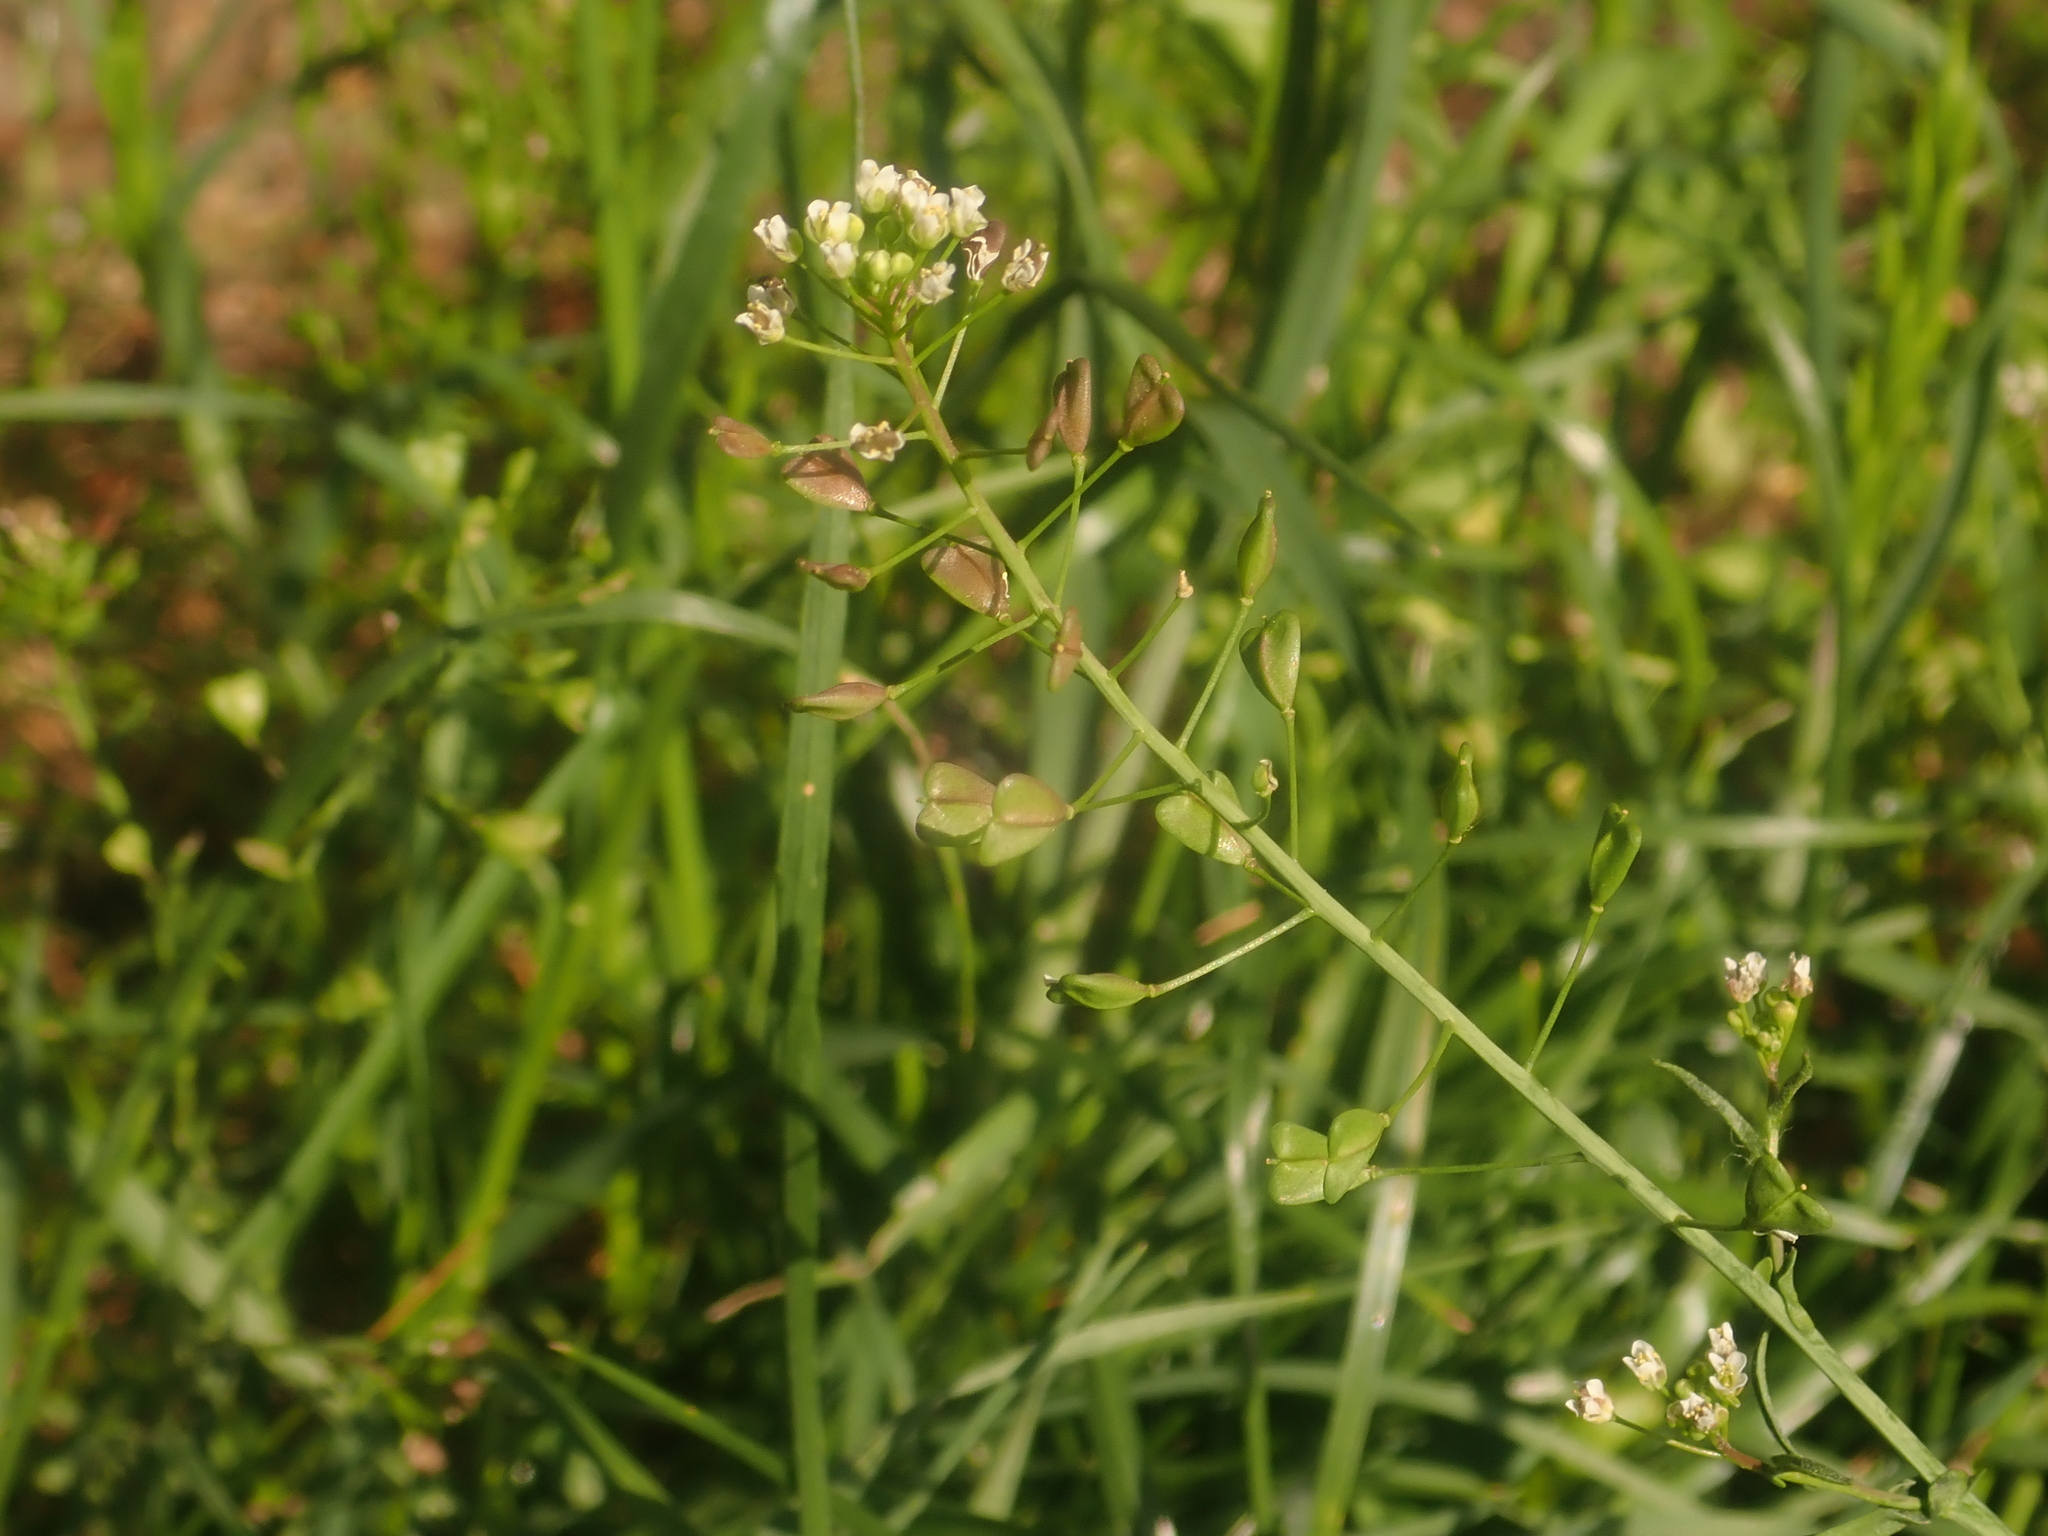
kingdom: Plantae
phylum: Tracheophyta
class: Magnoliopsida
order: Brassicales
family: Brassicaceae
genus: Capsella
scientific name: Capsella bursa-pastoris
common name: Shepherd's purse
